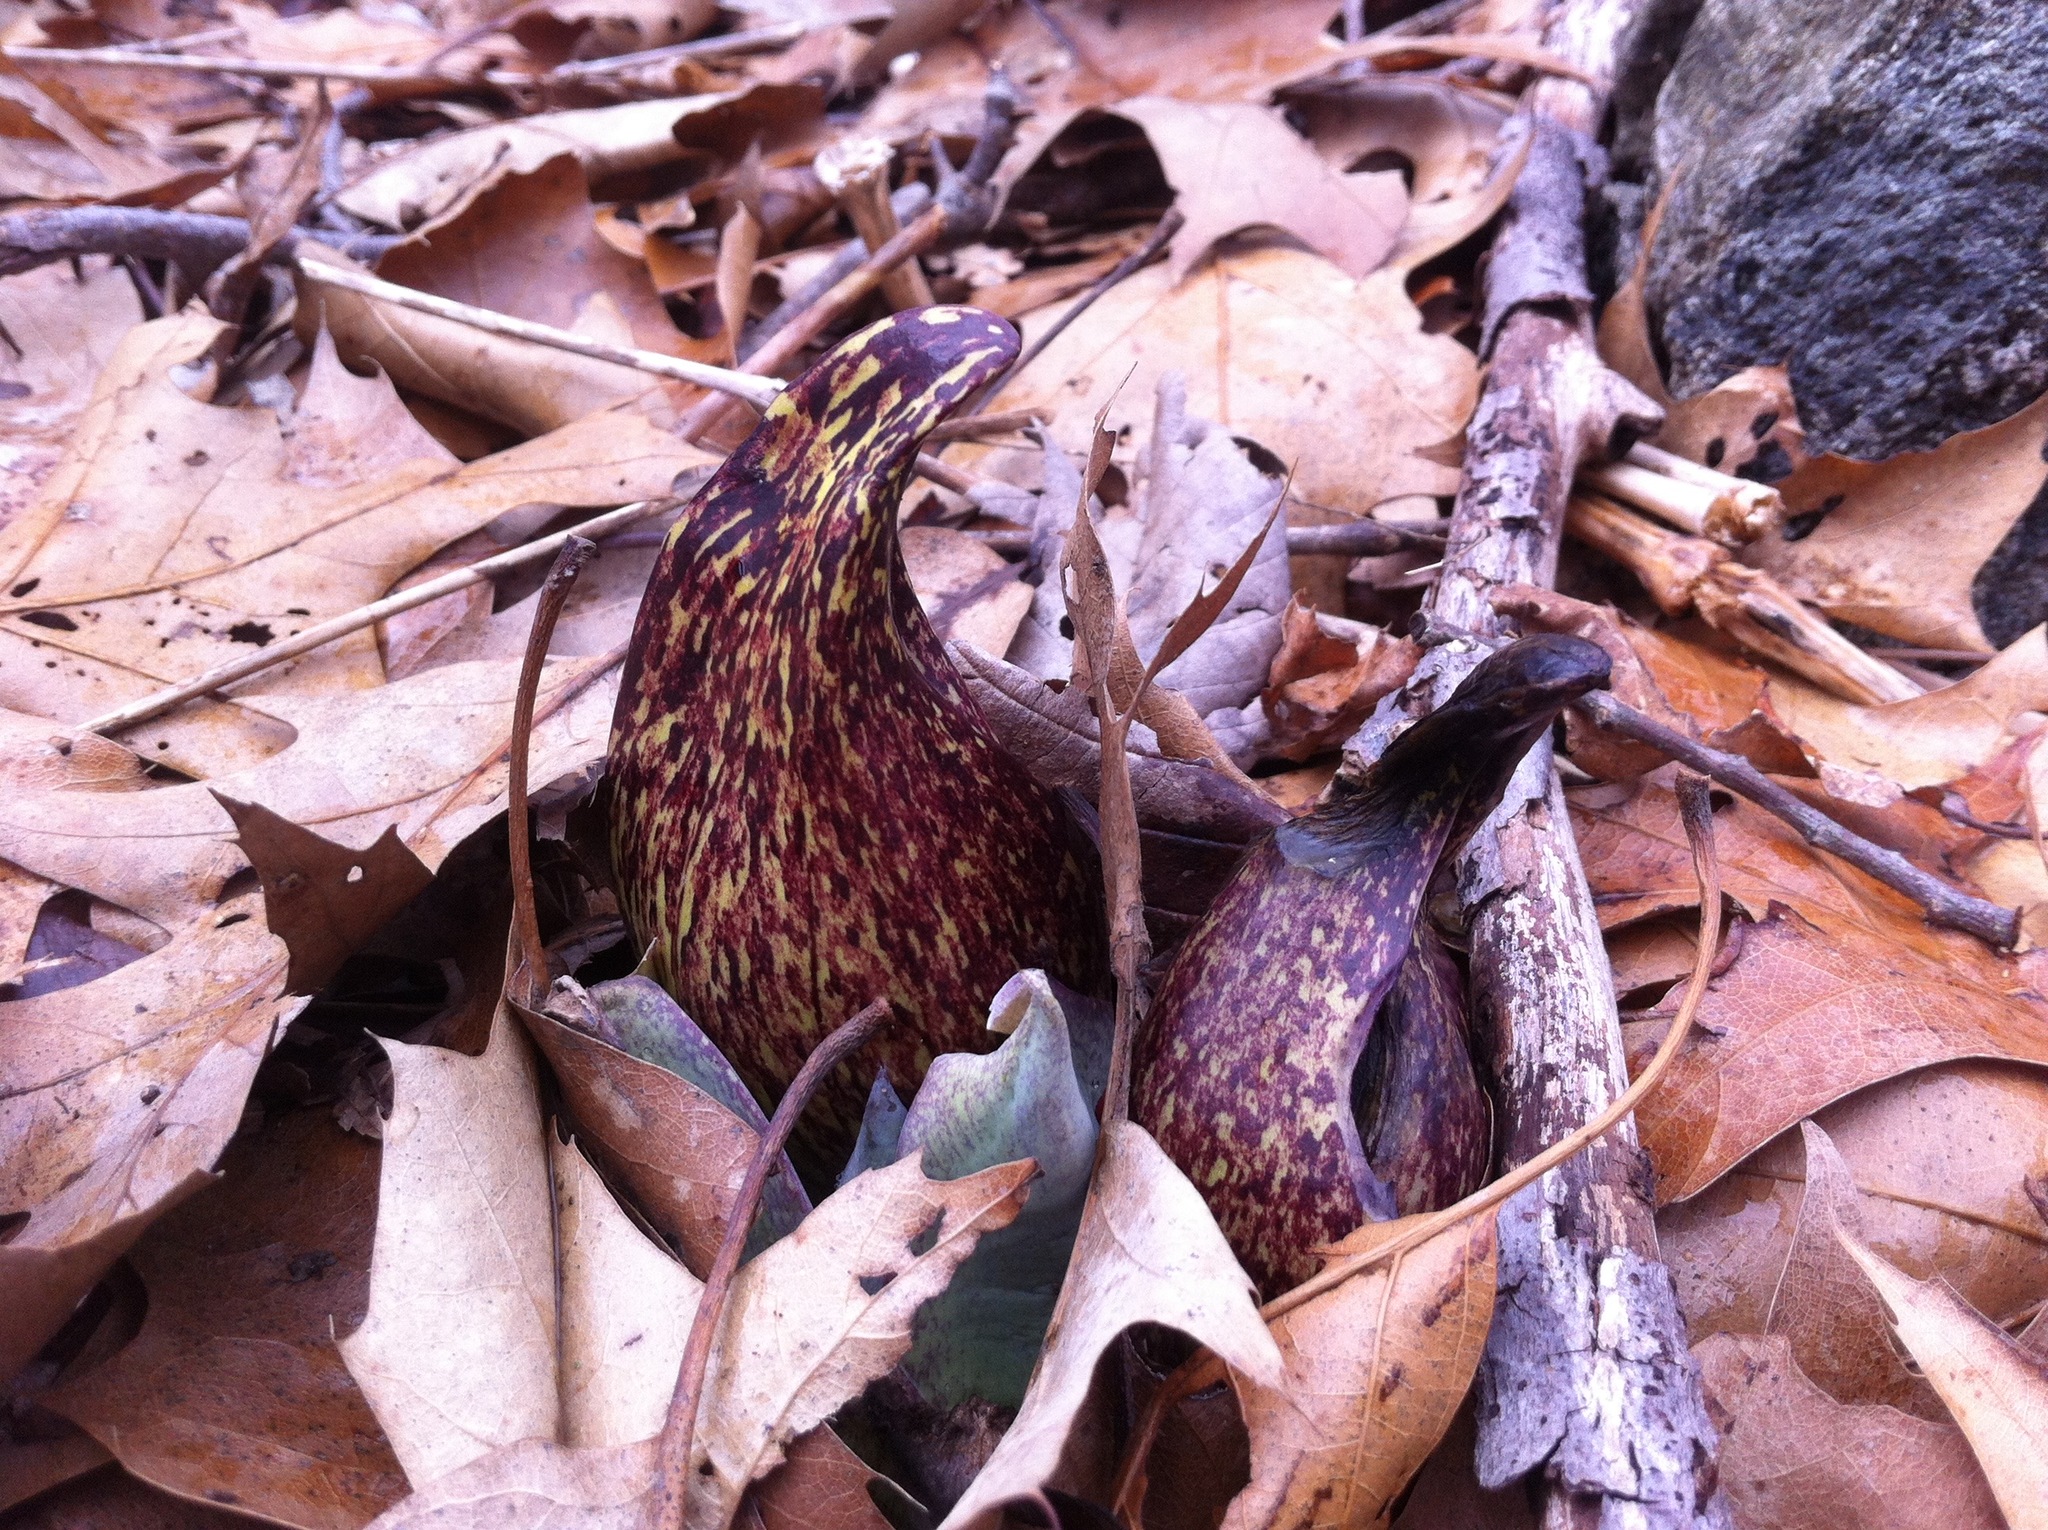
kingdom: Plantae
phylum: Tracheophyta
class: Liliopsida
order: Alismatales
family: Araceae
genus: Symplocarpus
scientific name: Symplocarpus foetidus
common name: Eastern skunk cabbage
